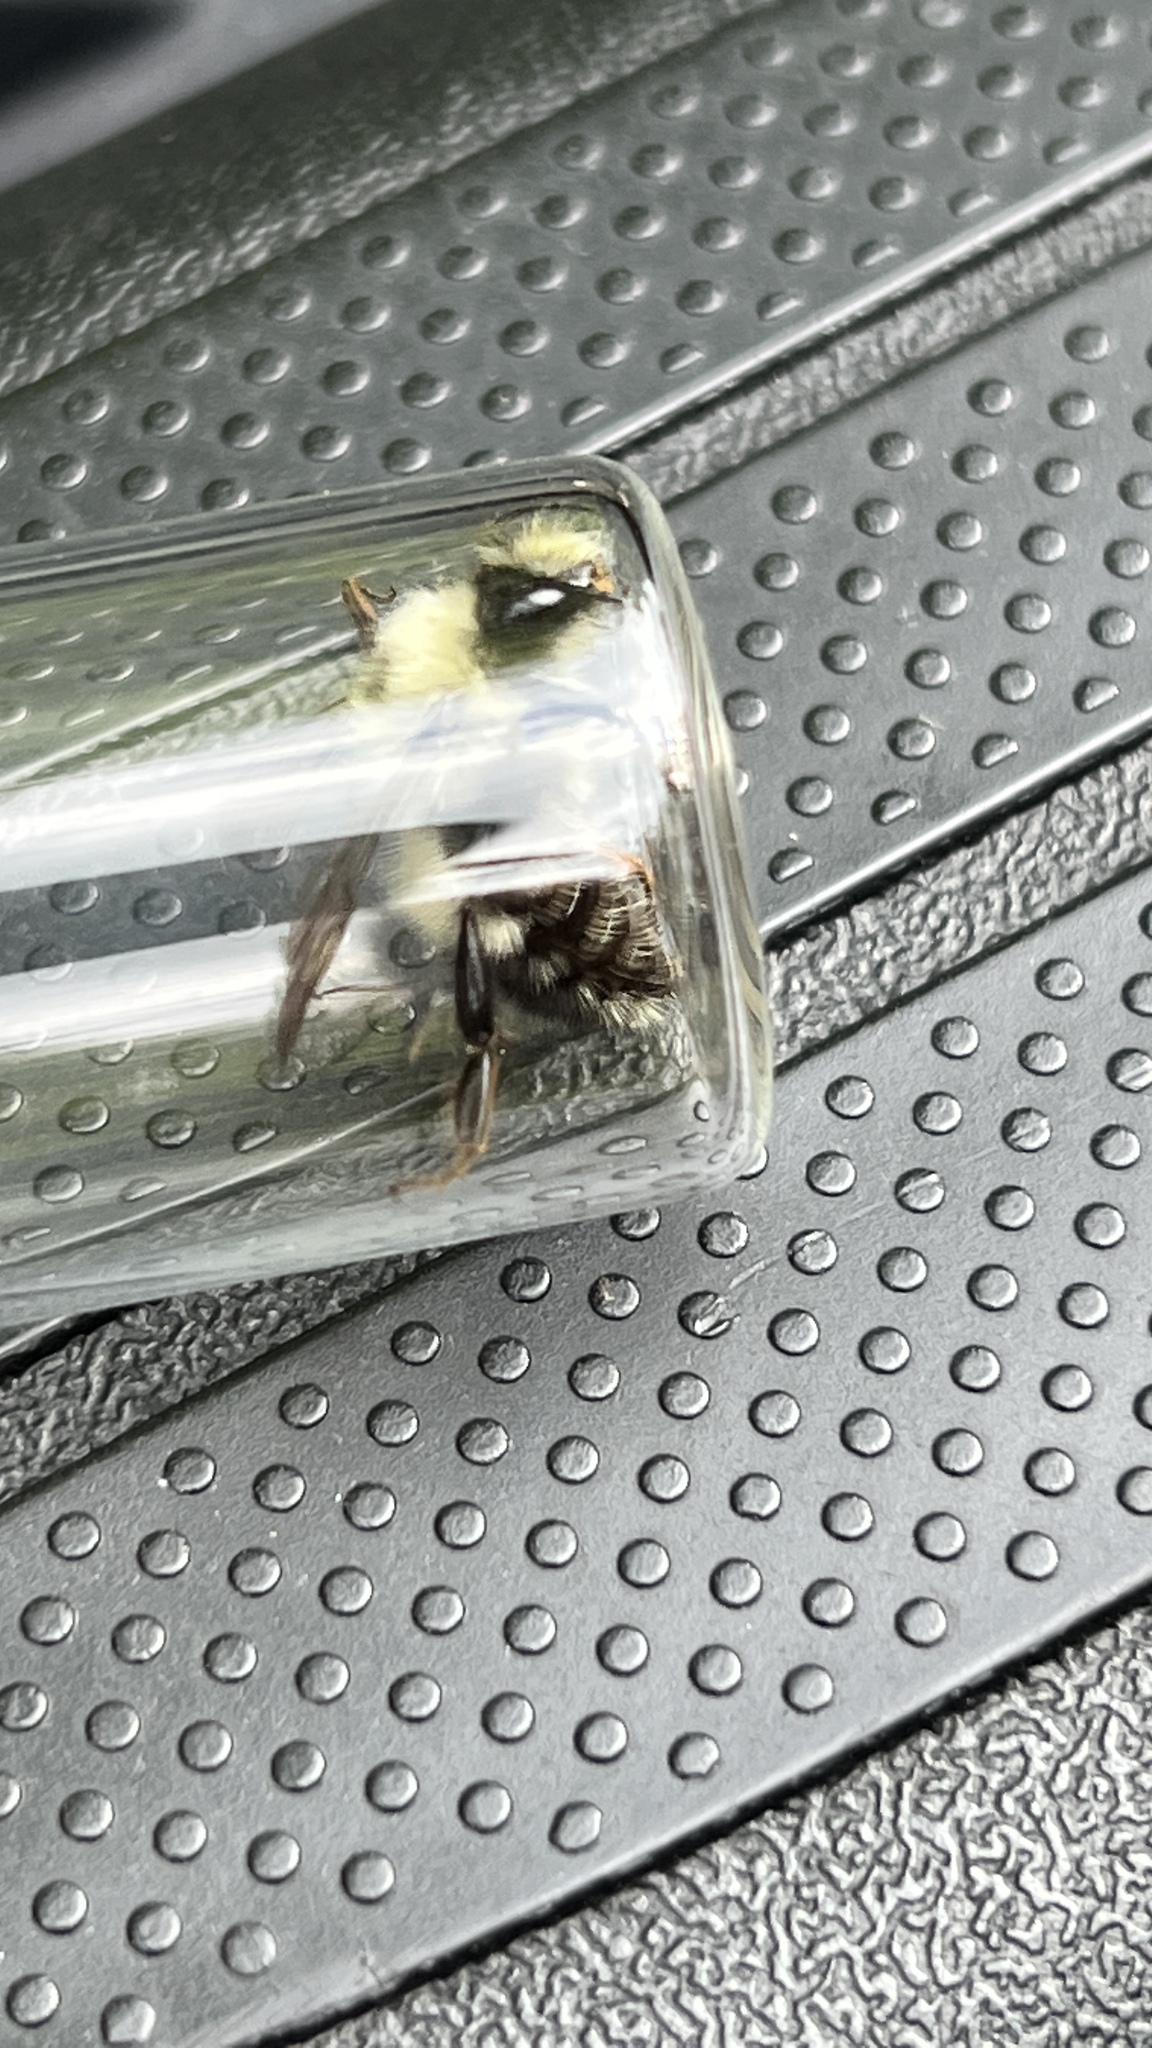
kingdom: Animalia
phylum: Arthropoda
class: Insecta
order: Hymenoptera
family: Apidae
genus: Pyrobombus
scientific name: Pyrobombus
